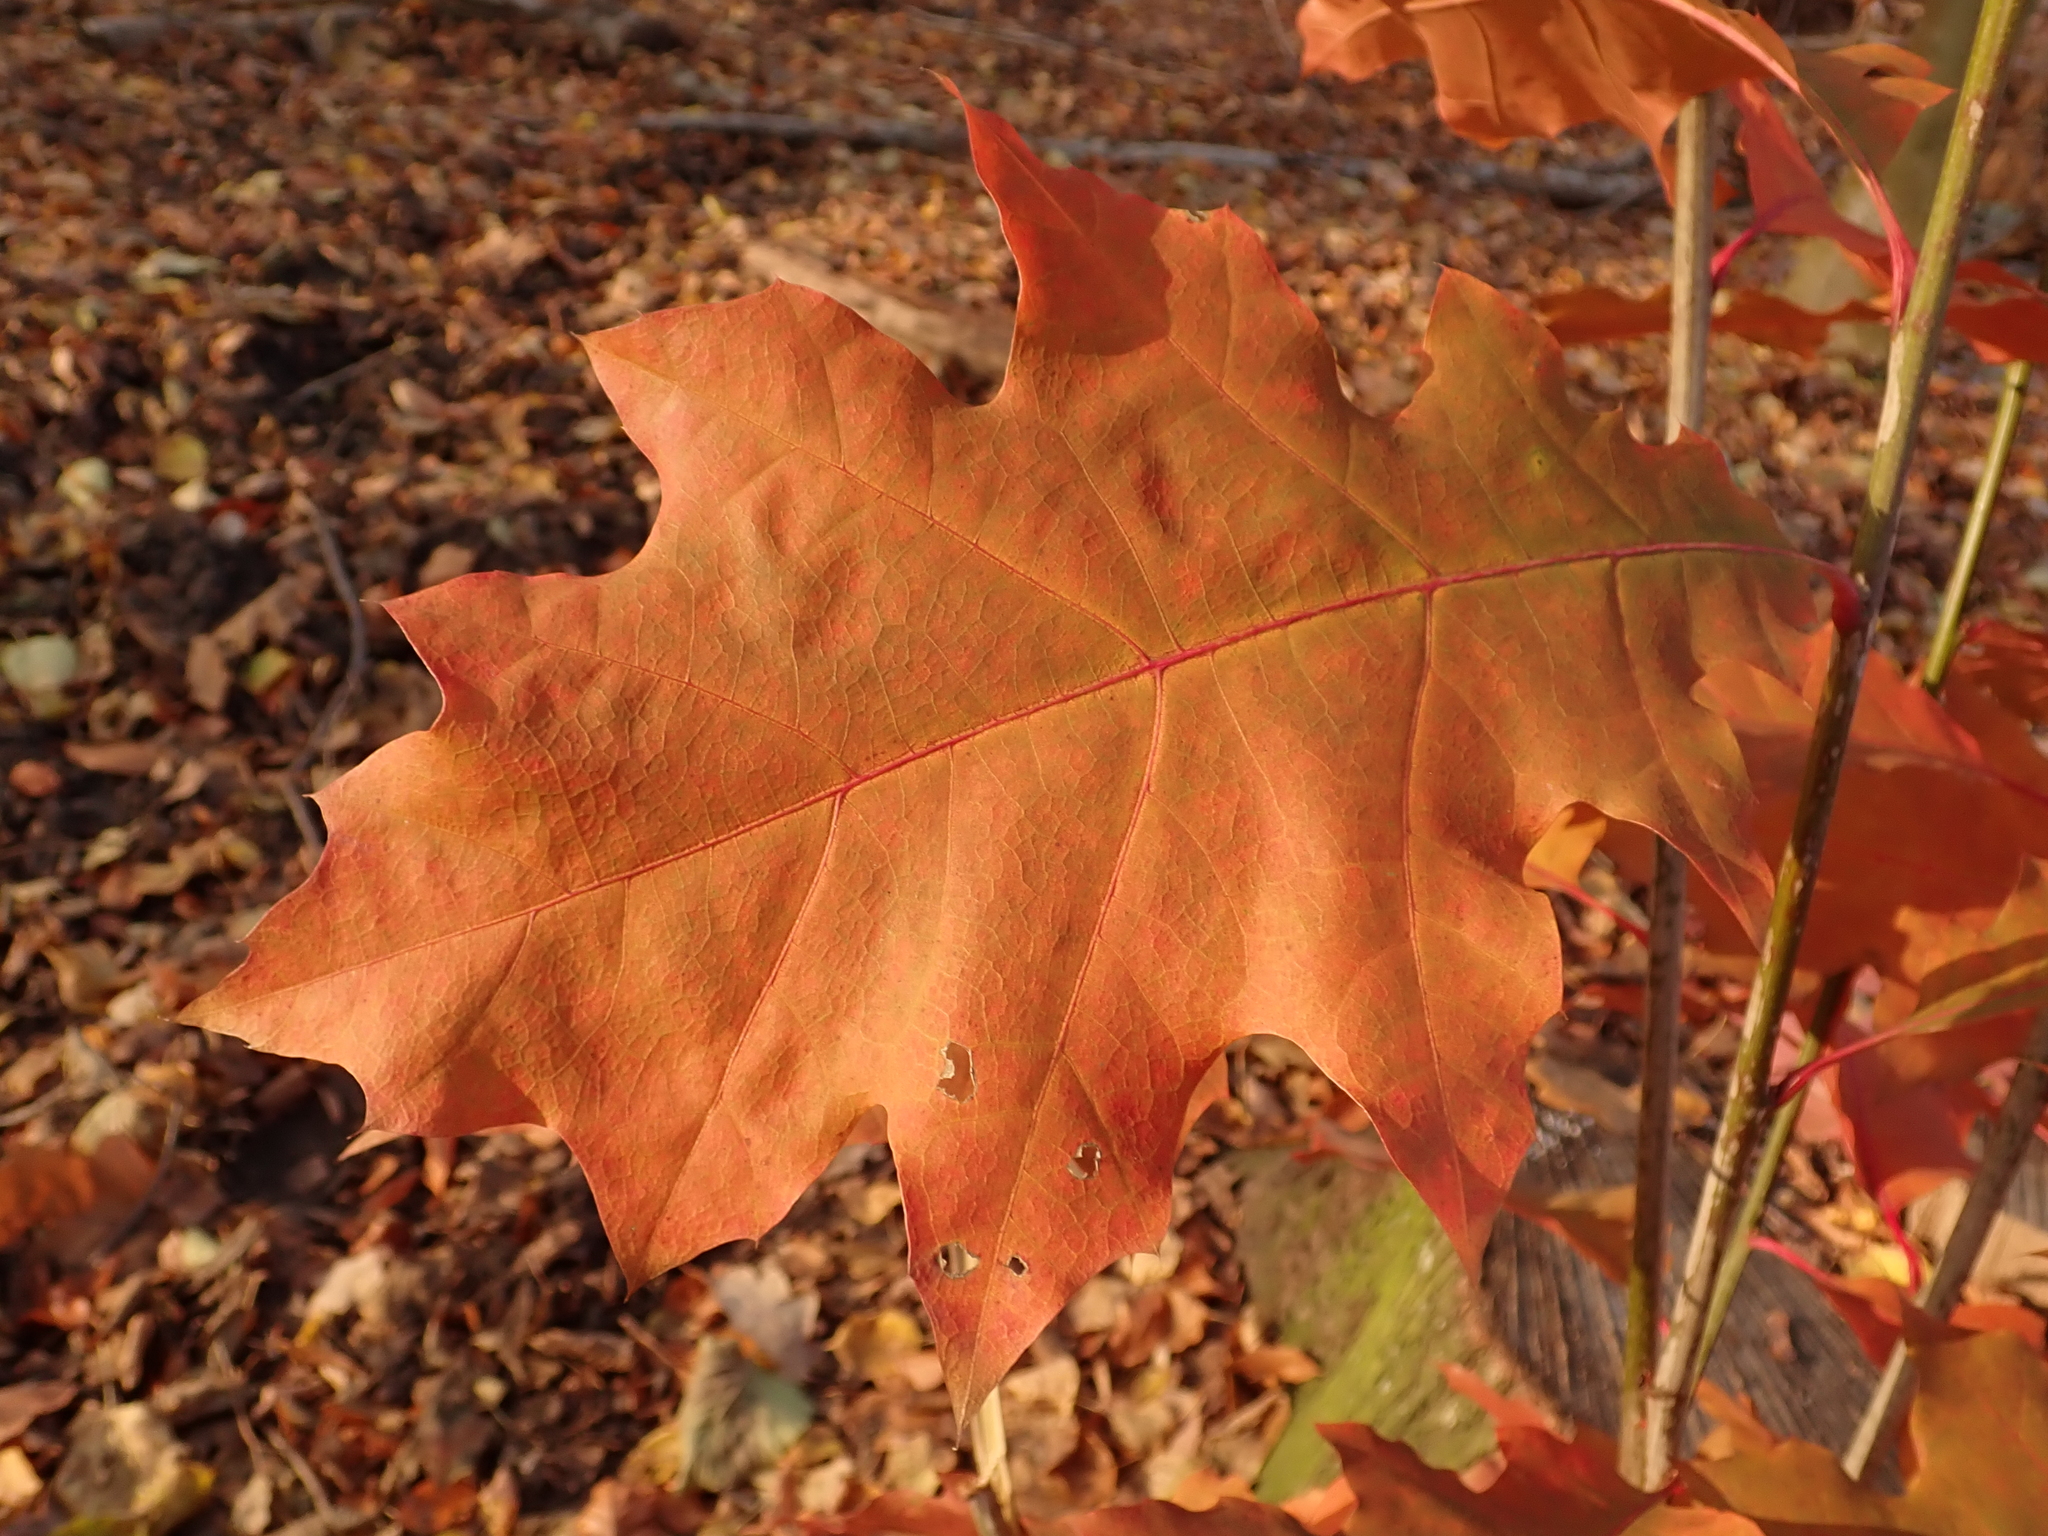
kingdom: Plantae
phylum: Tracheophyta
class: Magnoliopsida
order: Fagales
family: Fagaceae
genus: Quercus
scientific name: Quercus rubra
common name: Red oak
